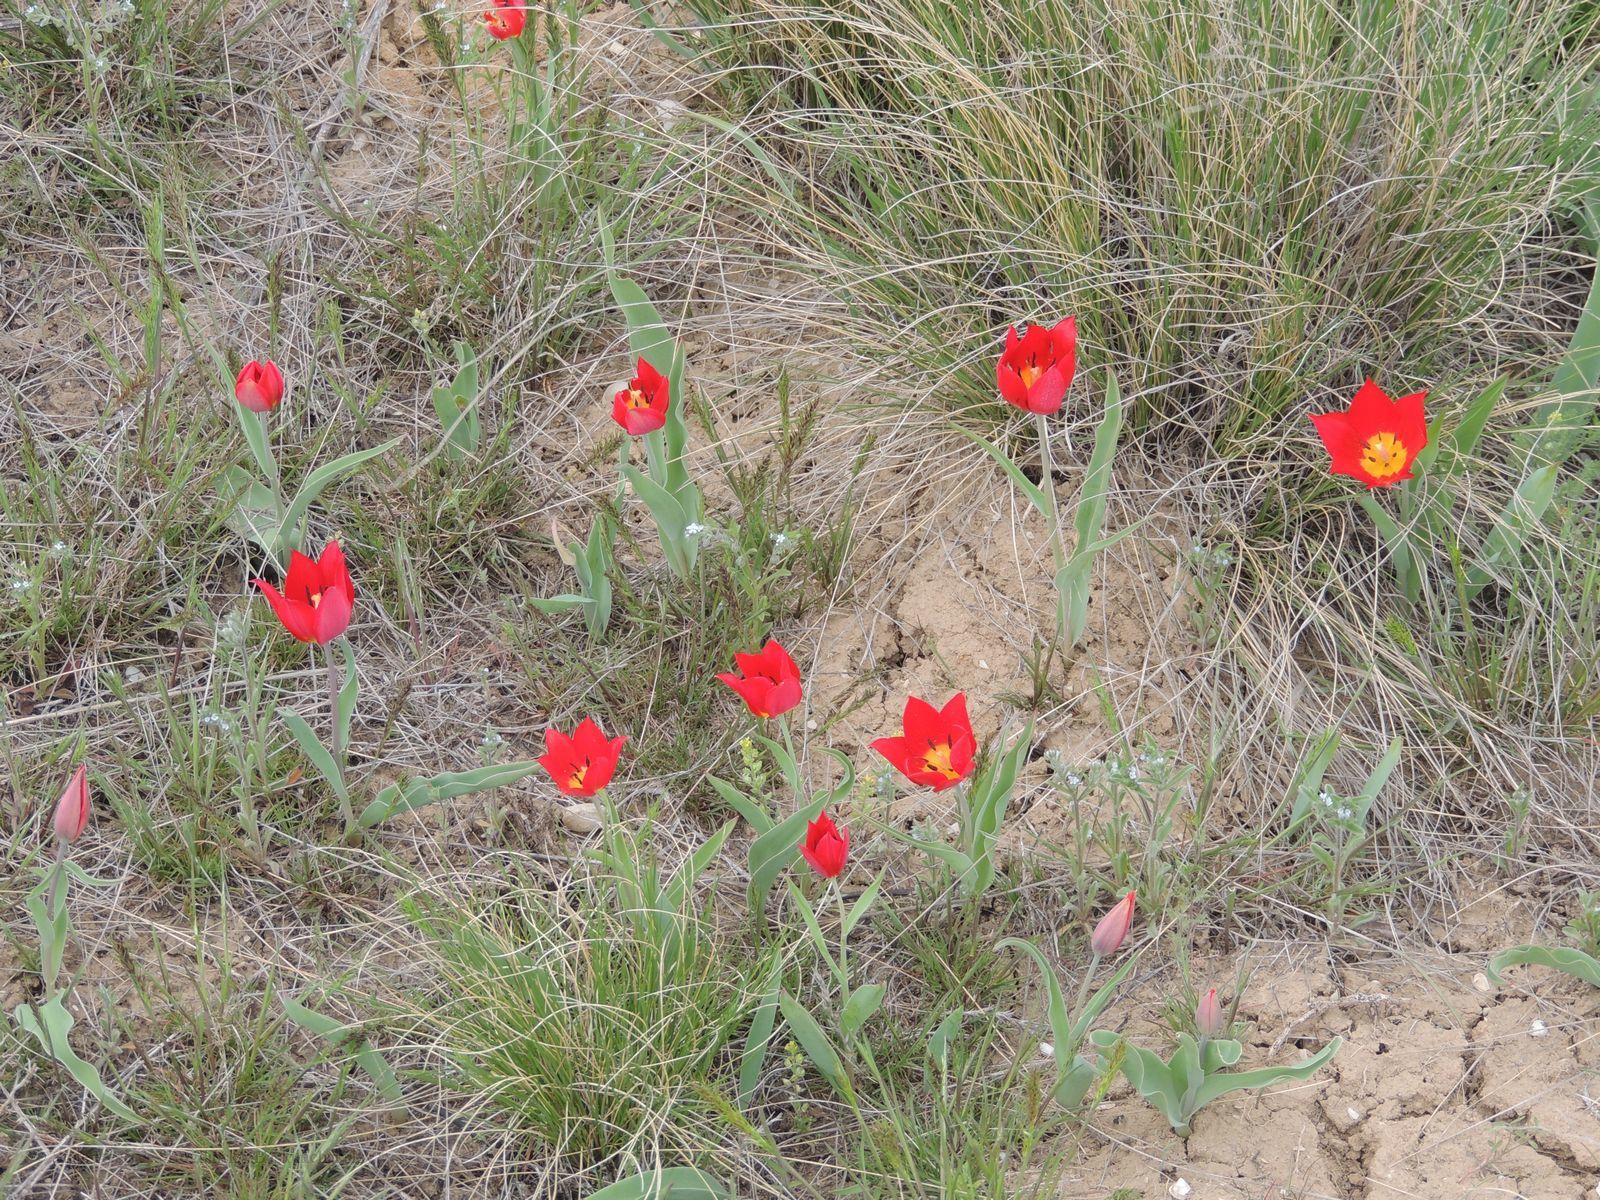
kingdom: Plantae
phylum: Tracheophyta
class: Liliopsida
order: Liliales
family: Liliaceae
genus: Tulipa
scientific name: Tulipa suaveolens
